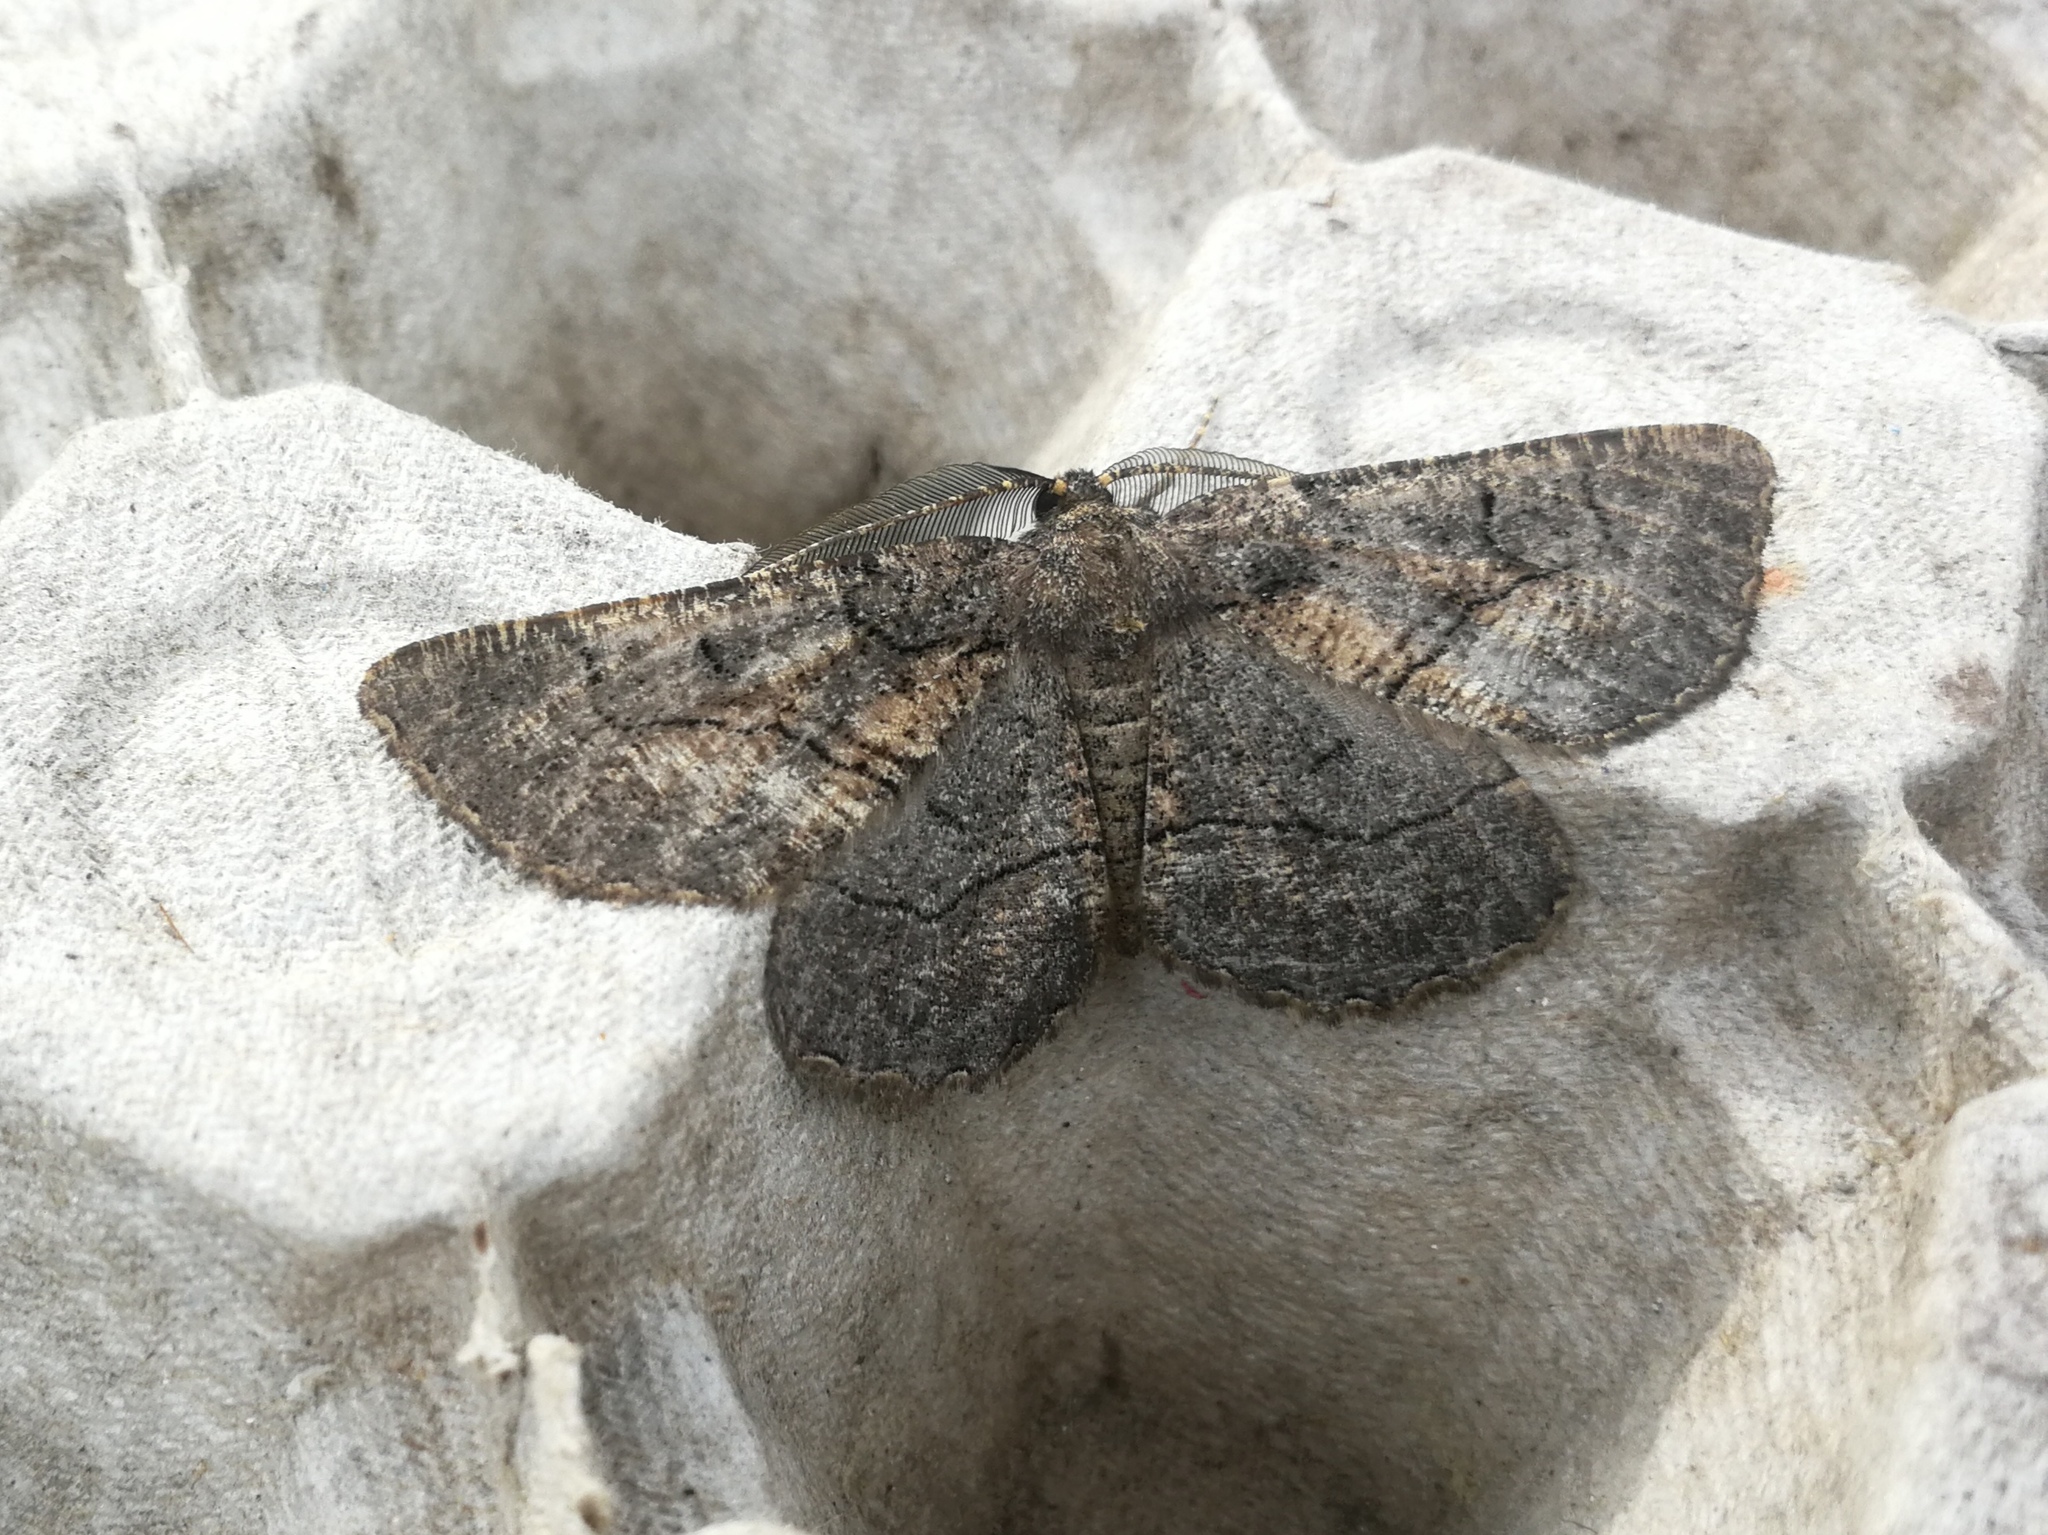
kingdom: Animalia
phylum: Arthropoda
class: Insecta
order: Lepidoptera
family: Geometridae
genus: Nychiodes
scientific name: Nychiodes notarioi
